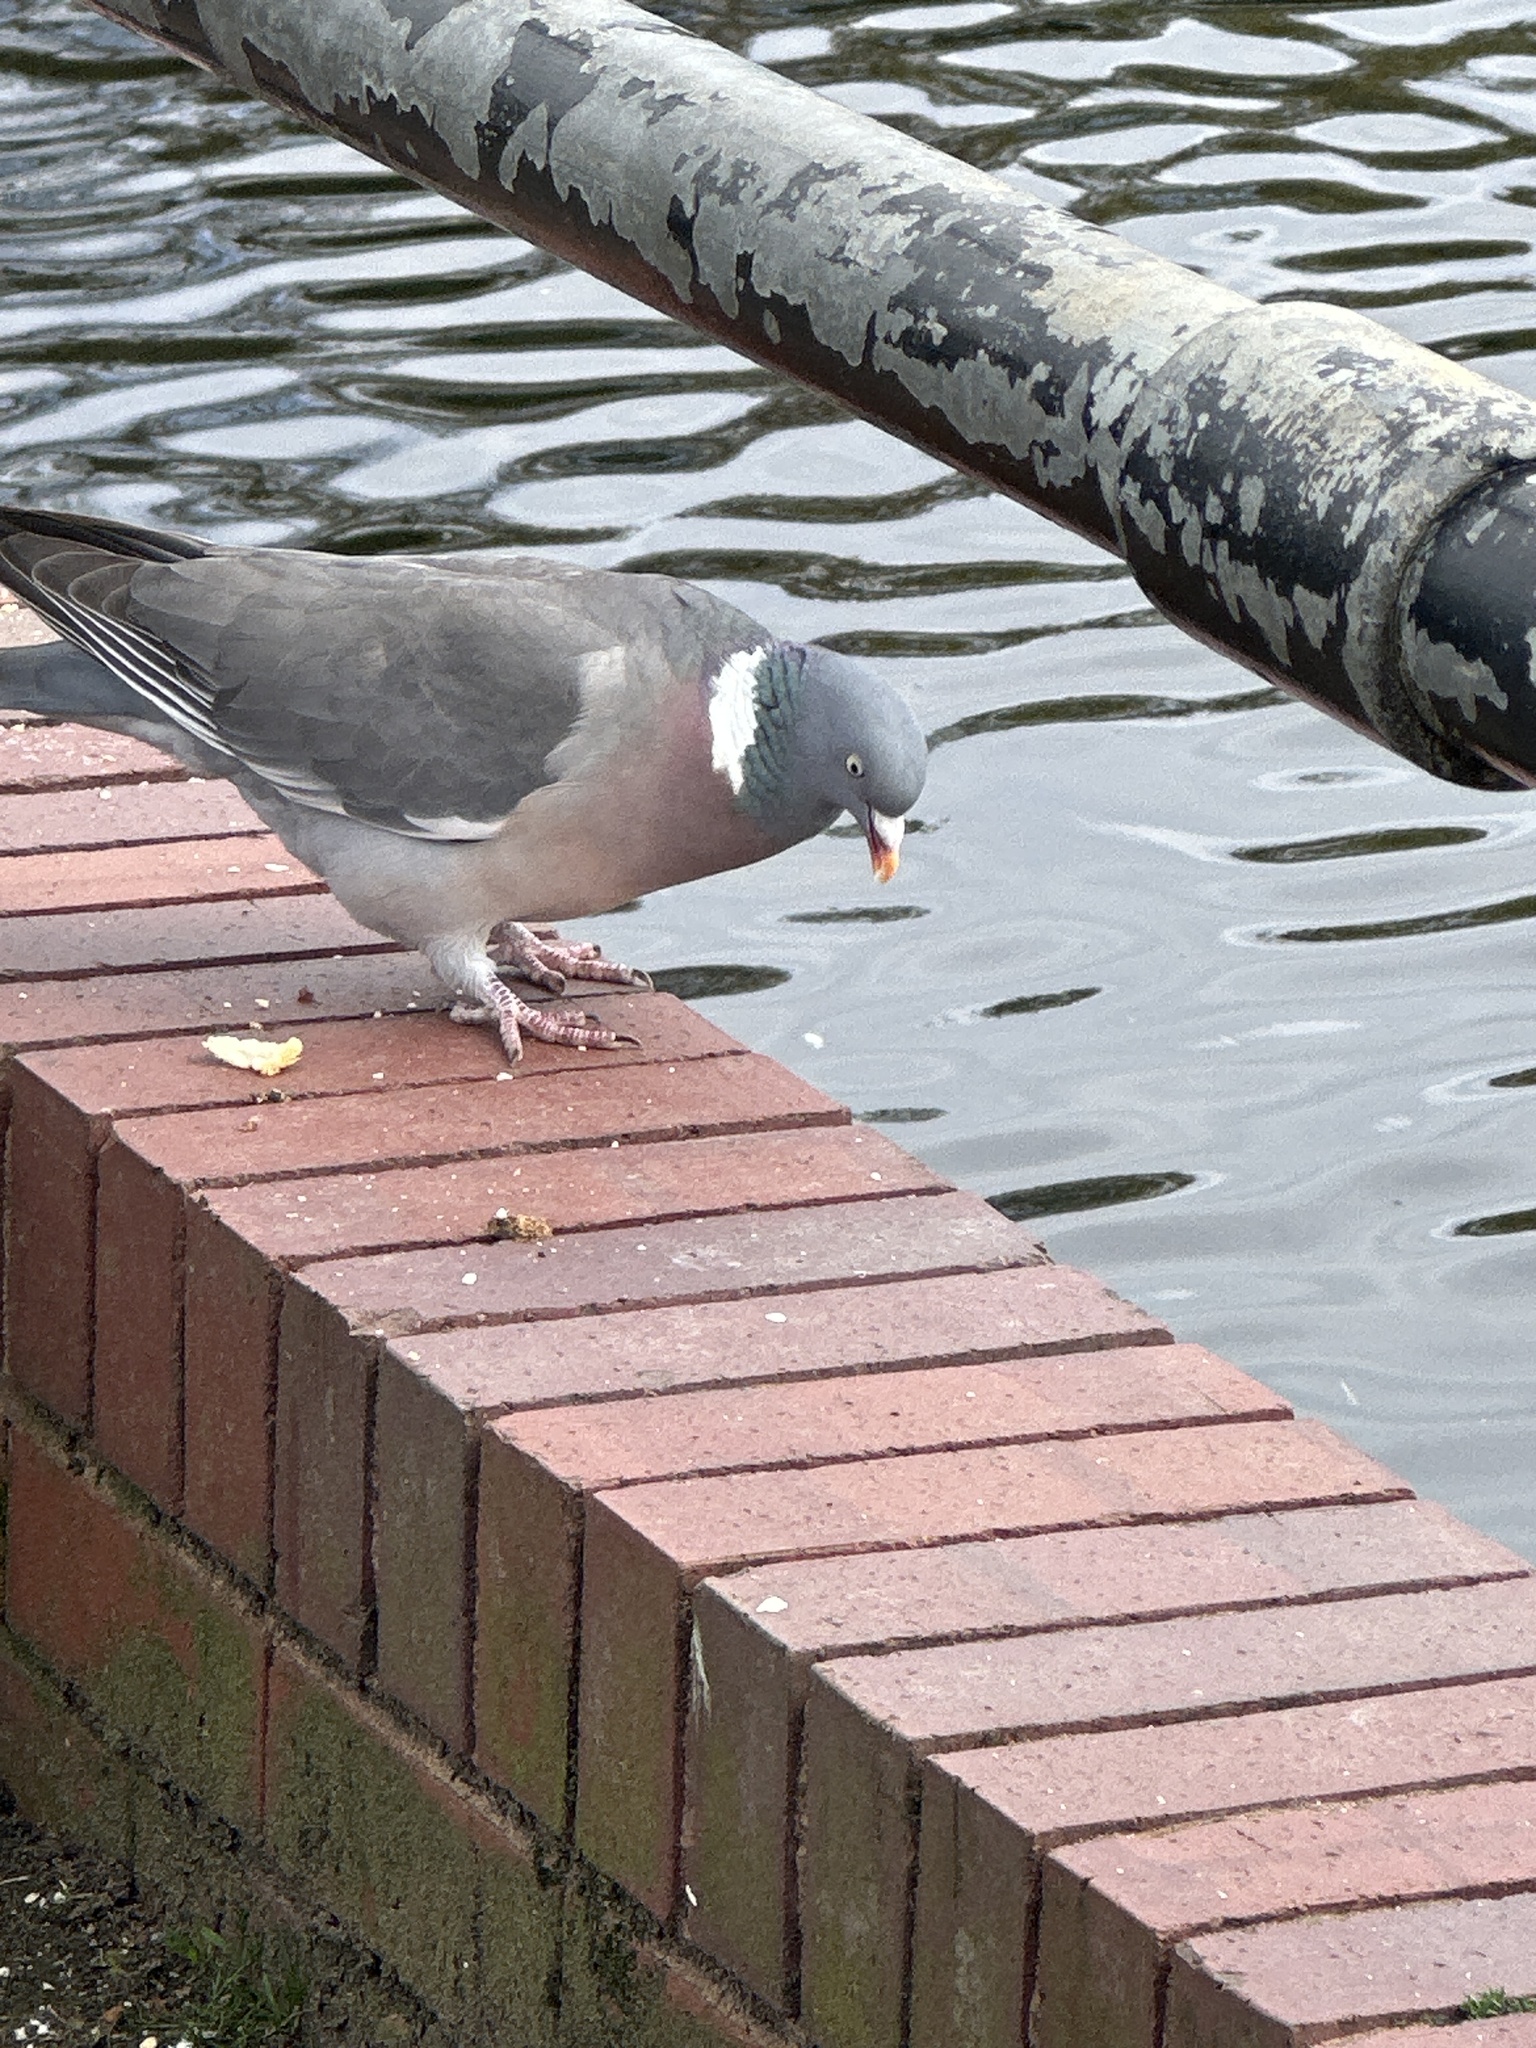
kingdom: Animalia
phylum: Chordata
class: Aves
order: Columbiformes
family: Columbidae
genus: Columba
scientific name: Columba palumbus
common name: Common wood pigeon
